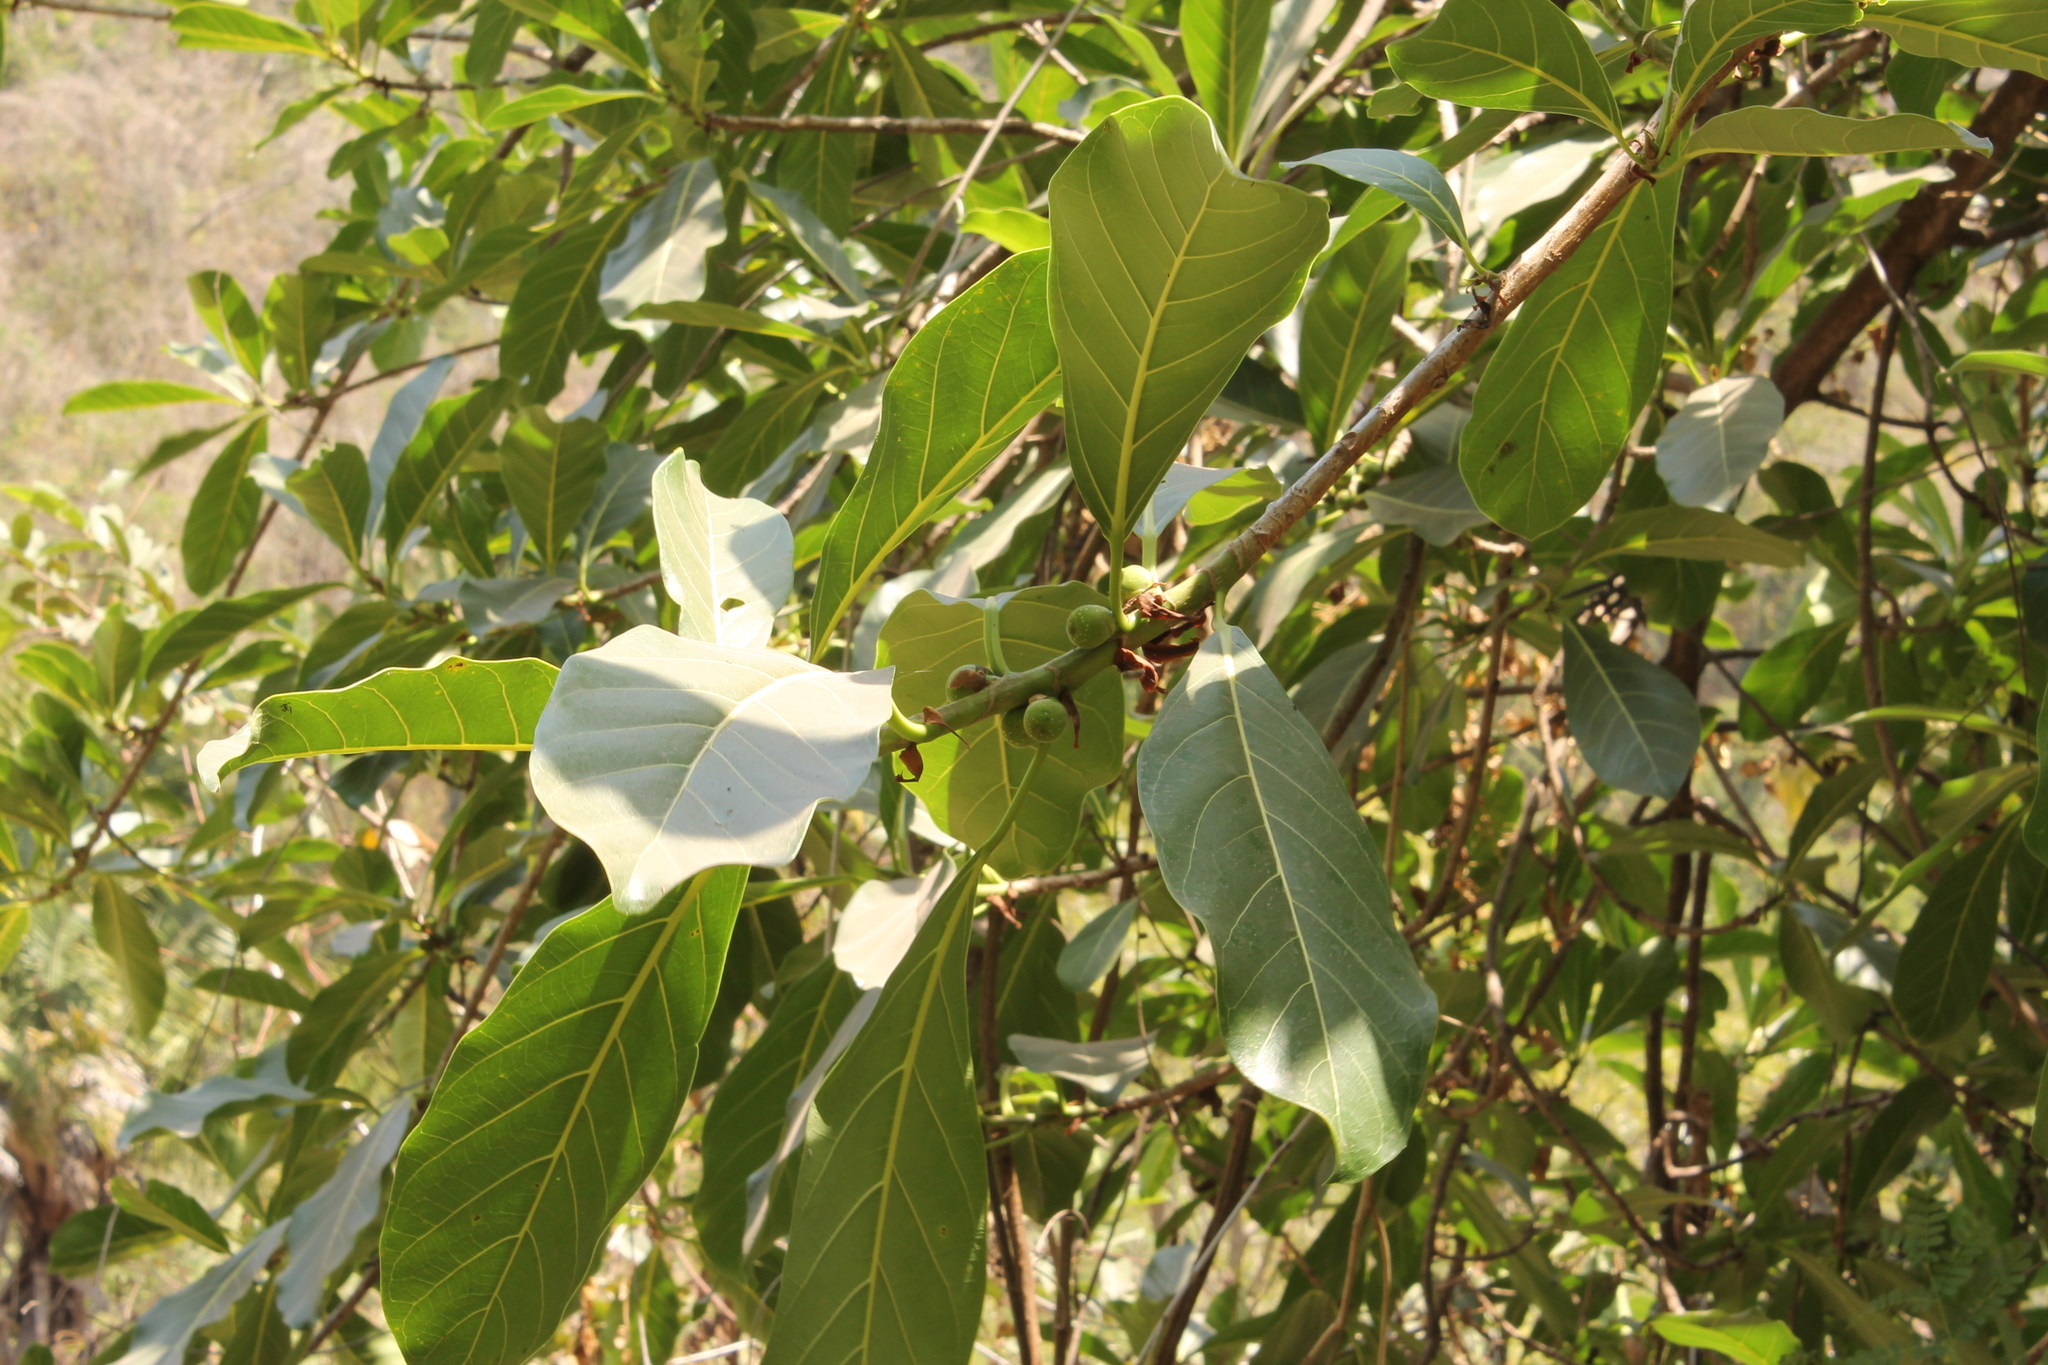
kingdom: Plantae
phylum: Tracheophyta
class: Magnoliopsida
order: Rosales
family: Moraceae
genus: Ficus
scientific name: Ficus obtusifolia
